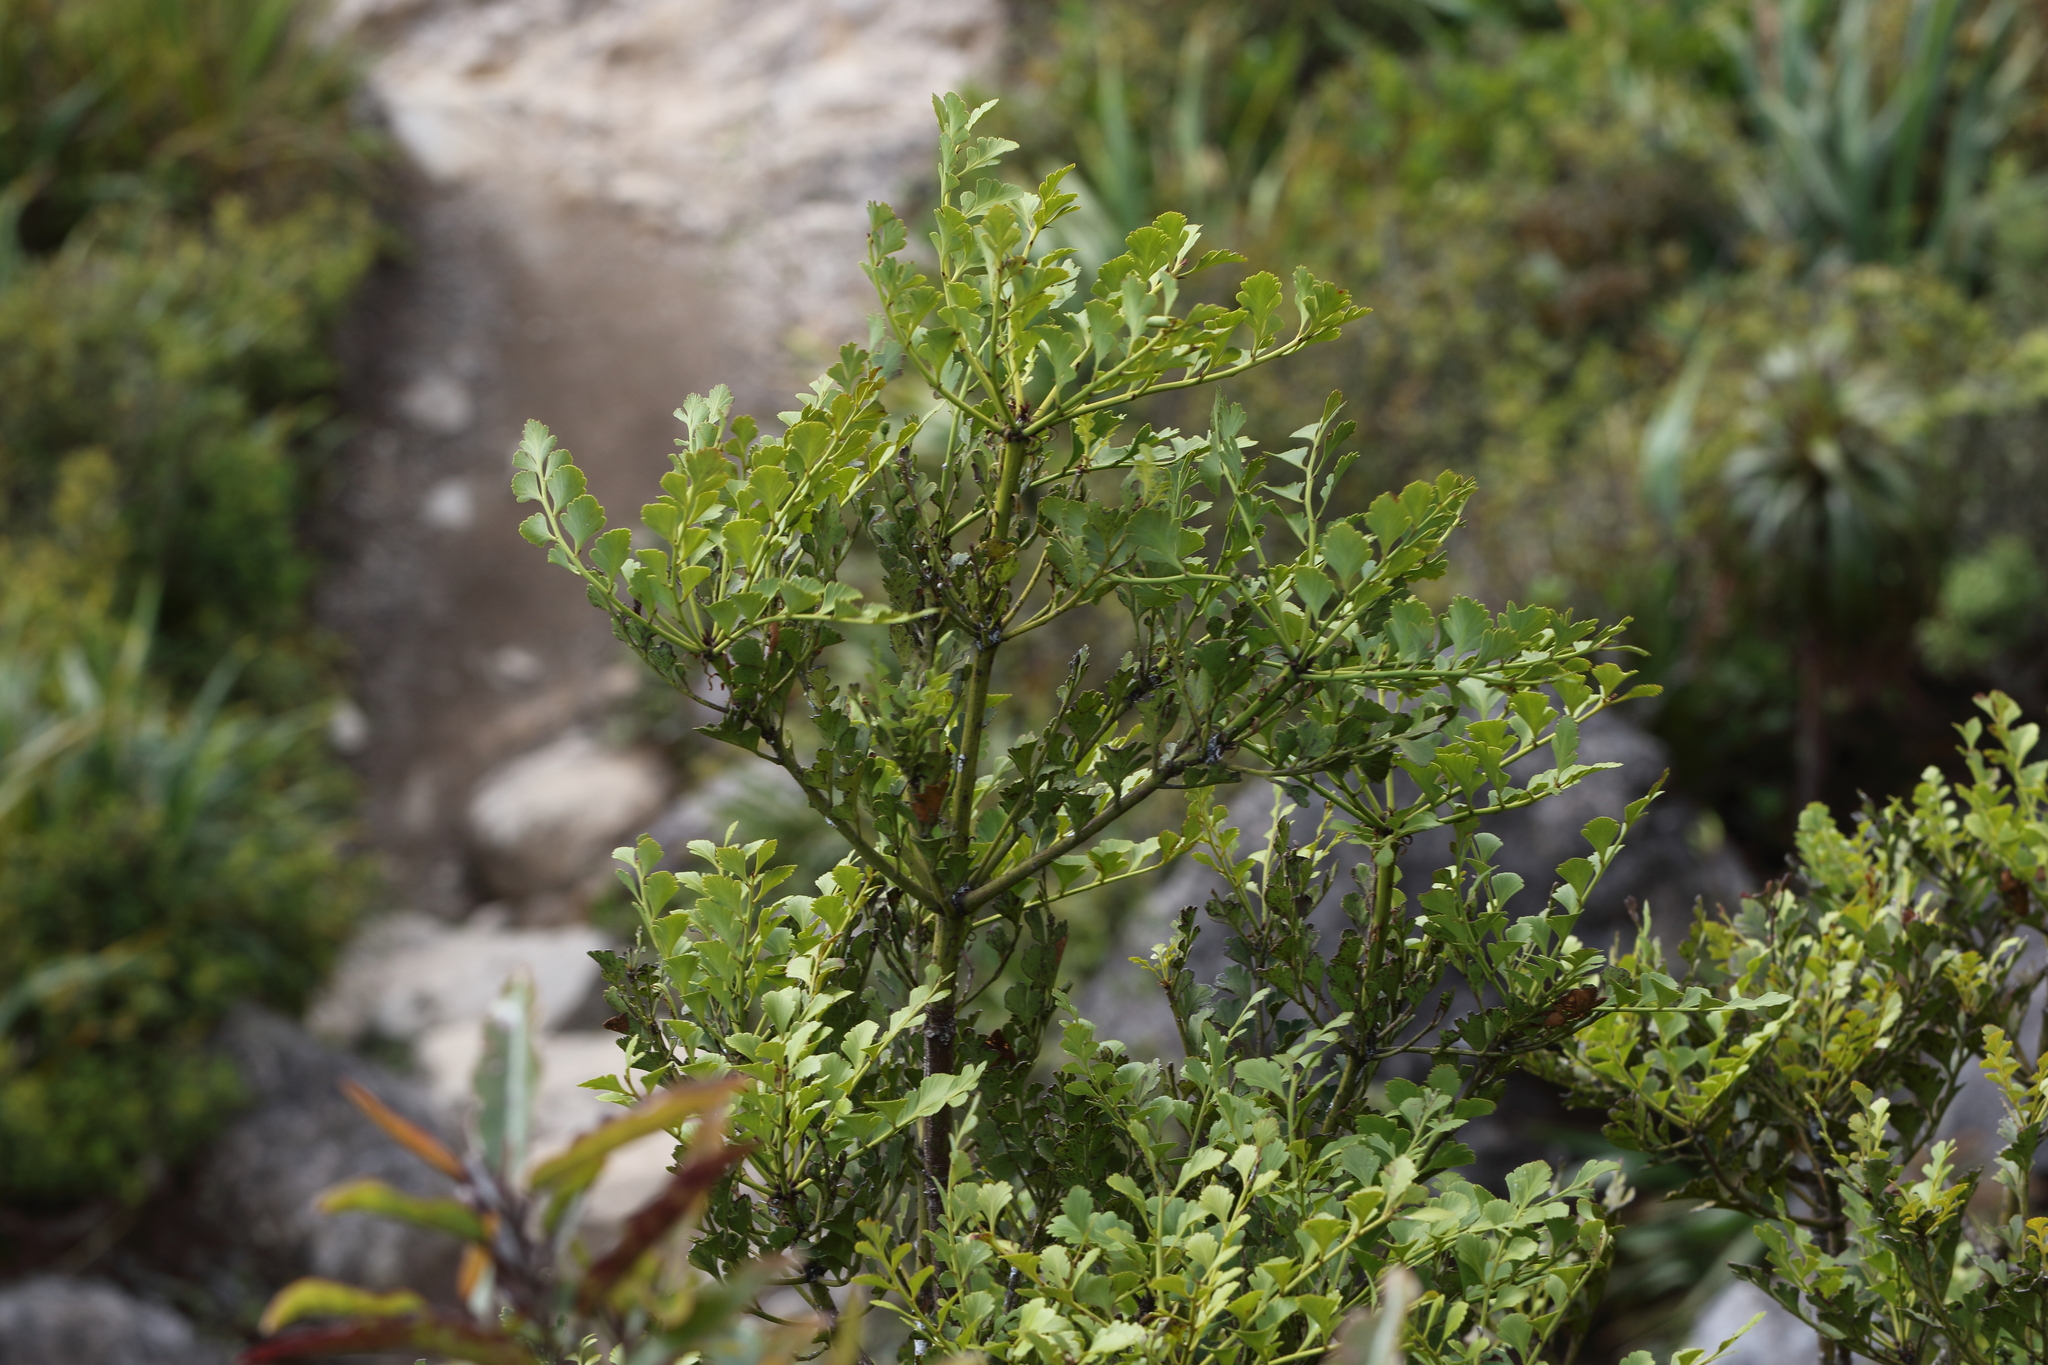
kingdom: Plantae
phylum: Tracheophyta
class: Pinopsida
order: Pinales
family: Phyllocladaceae
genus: Phyllocladus
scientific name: Phyllocladus toatoa
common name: Celery-top pine
